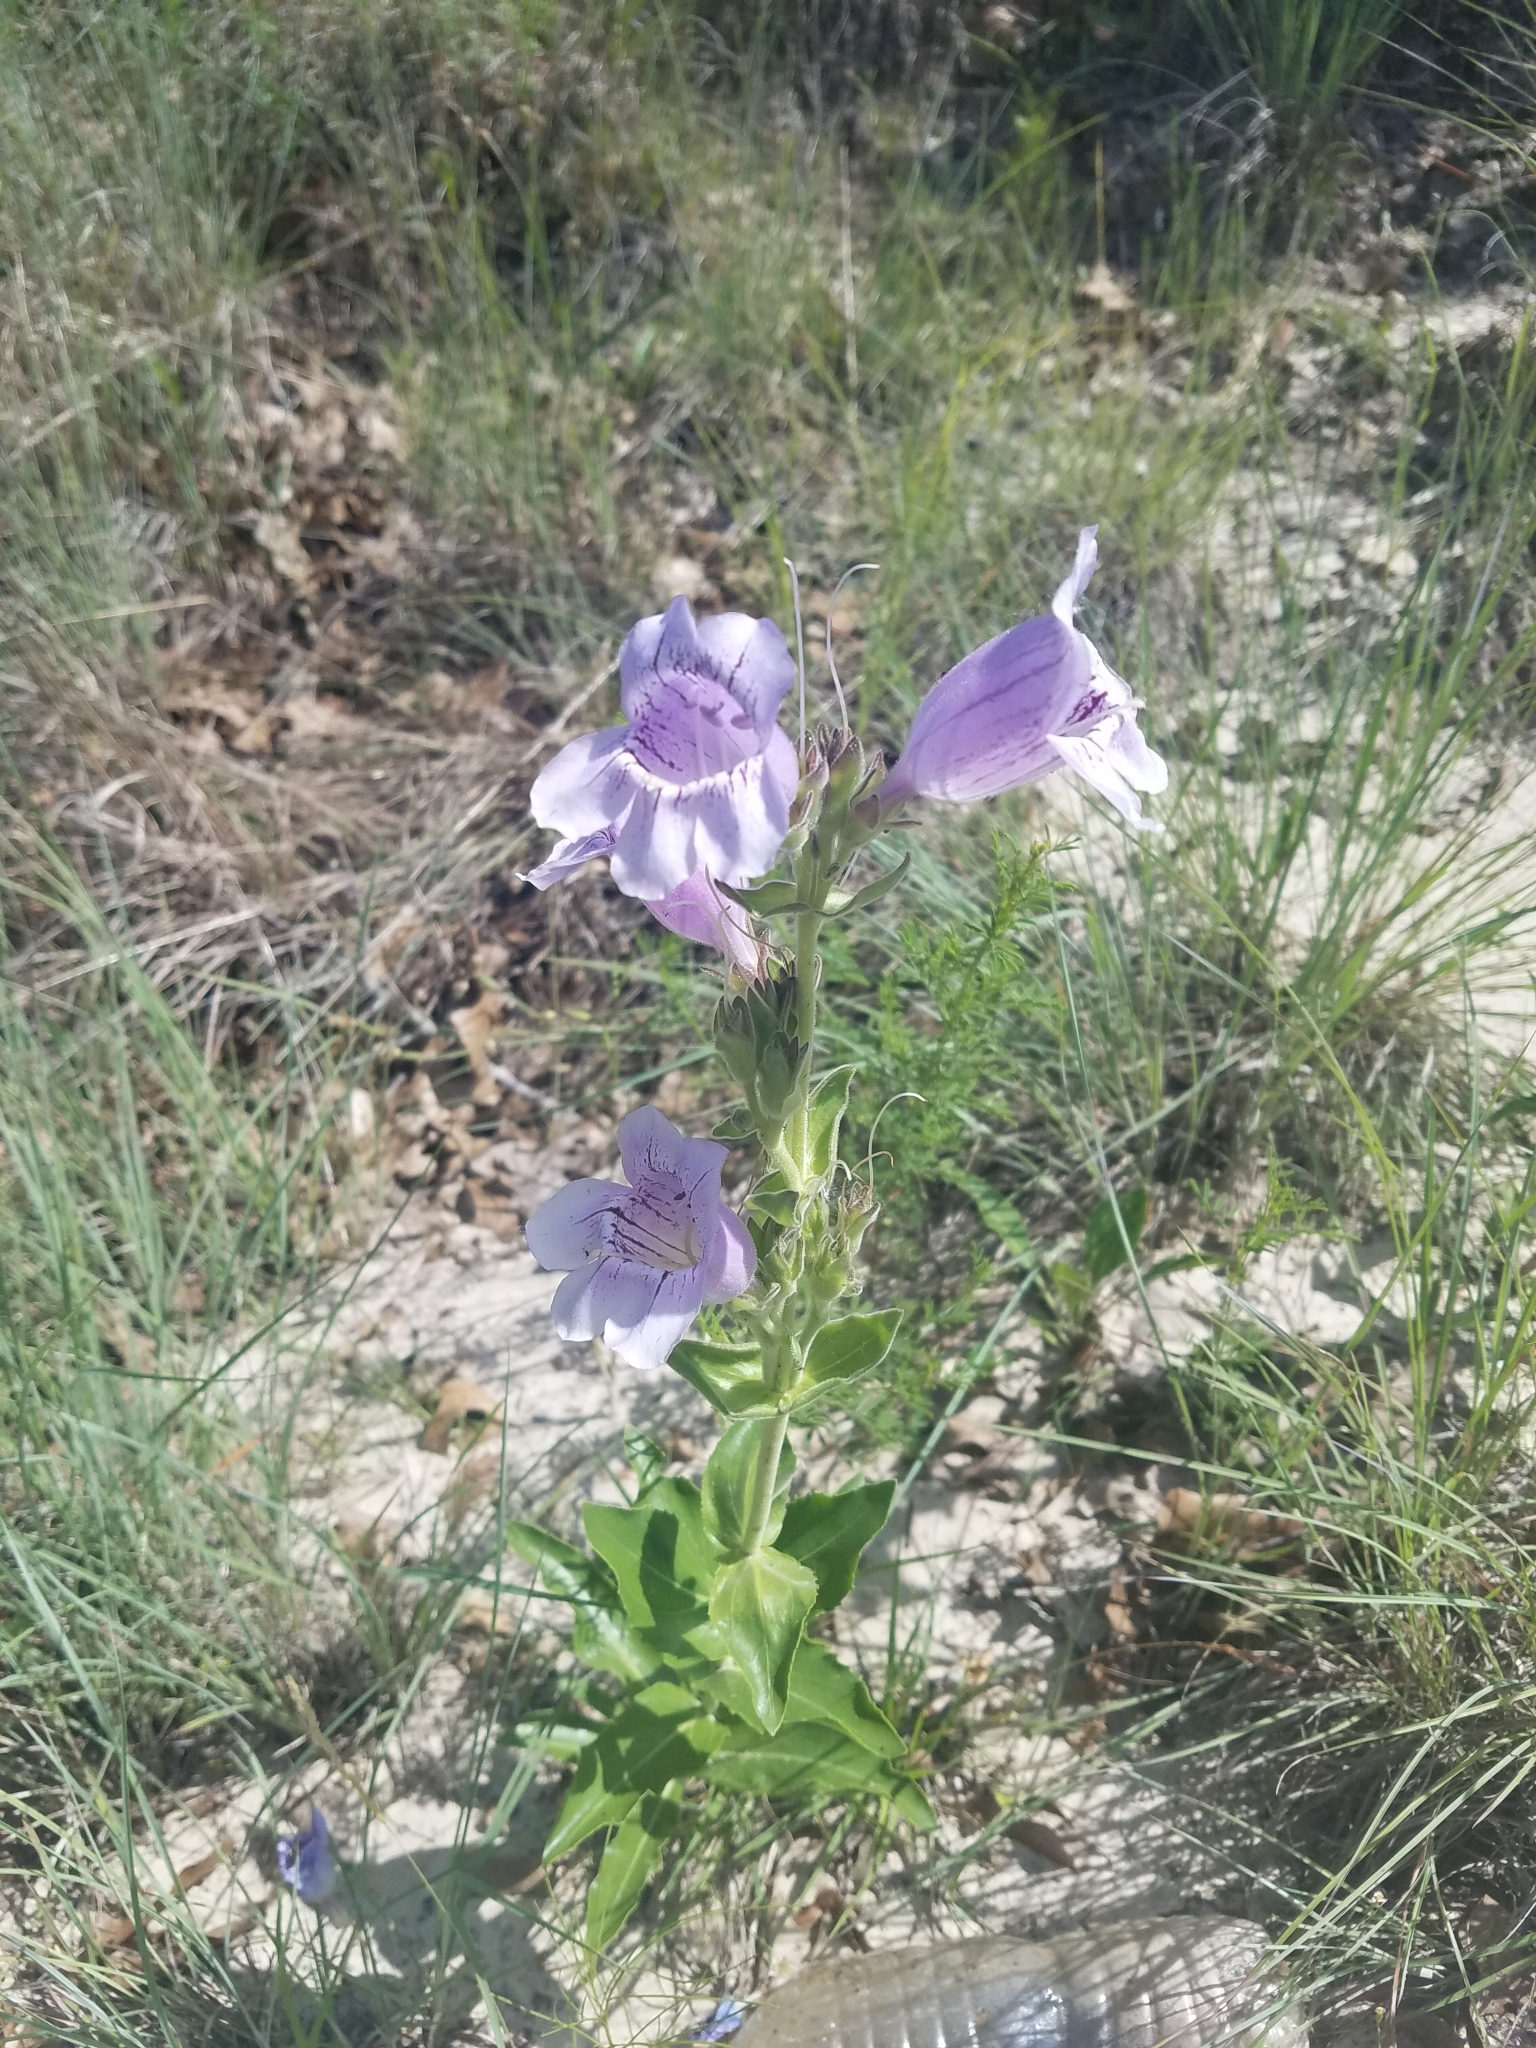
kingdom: Plantae
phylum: Tracheophyta
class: Magnoliopsida
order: Lamiales
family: Plantaginaceae
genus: Penstemon
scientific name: Penstemon cobaea
